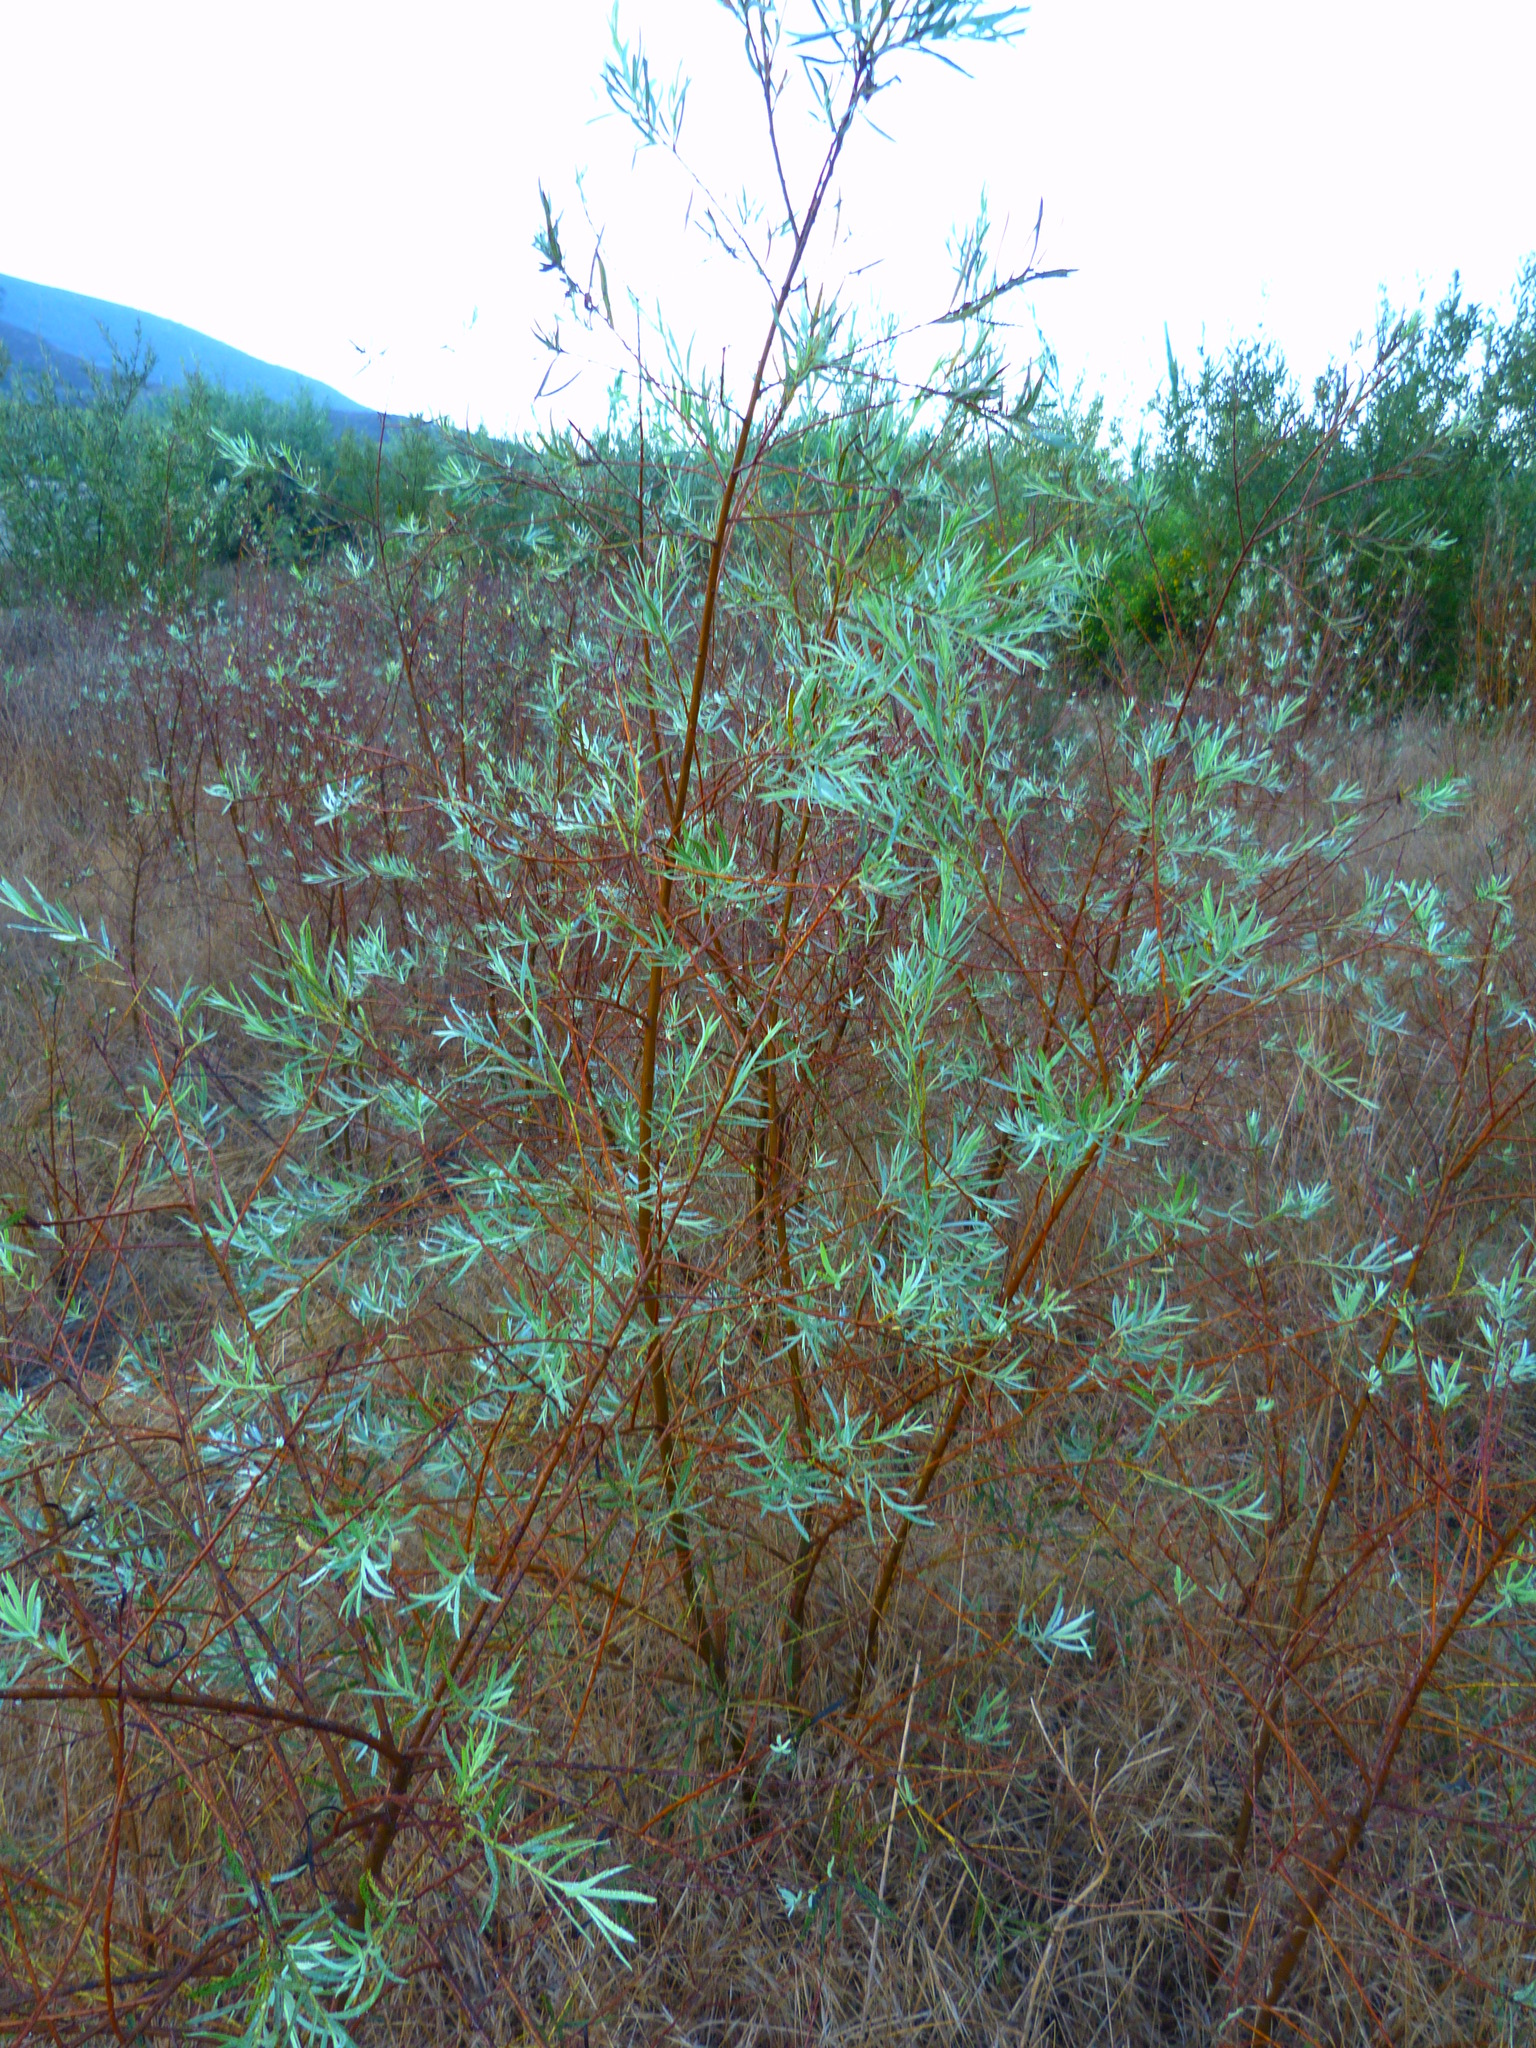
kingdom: Plantae
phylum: Tracheophyta
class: Magnoliopsida
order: Malpighiales
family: Salicaceae
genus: Salix
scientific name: Salix exigua
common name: Coyote willow
